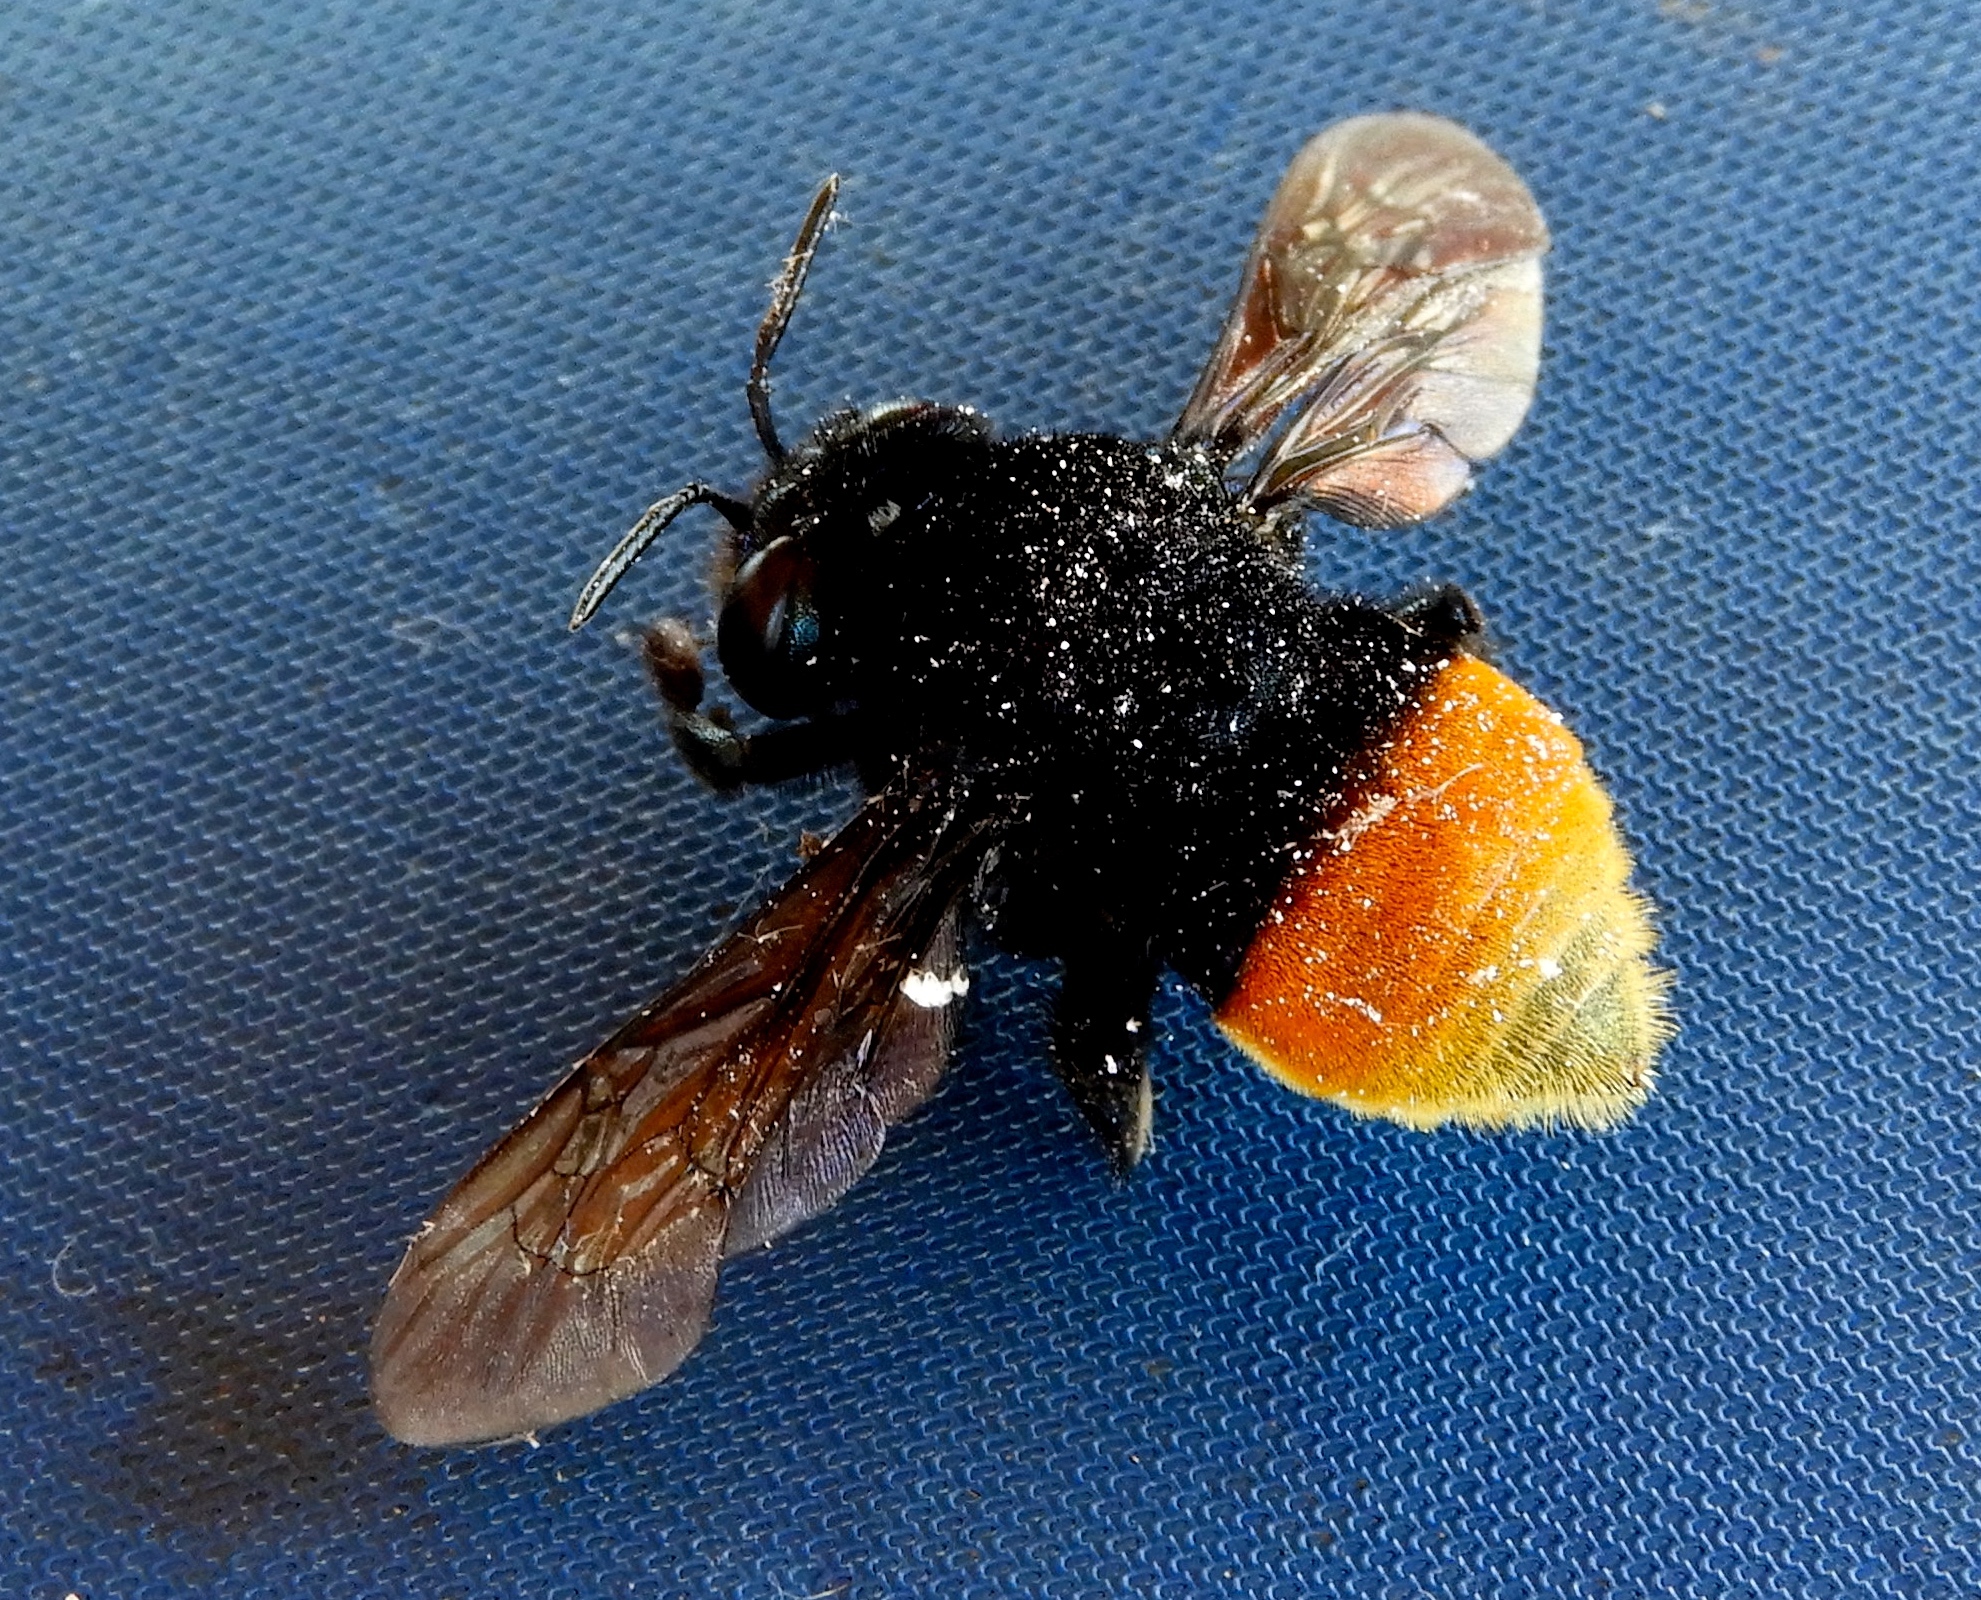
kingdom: Animalia
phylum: Arthropoda
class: Insecta
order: Hymenoptera
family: Apidae
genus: Eulaema
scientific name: Eulaema polychroma
